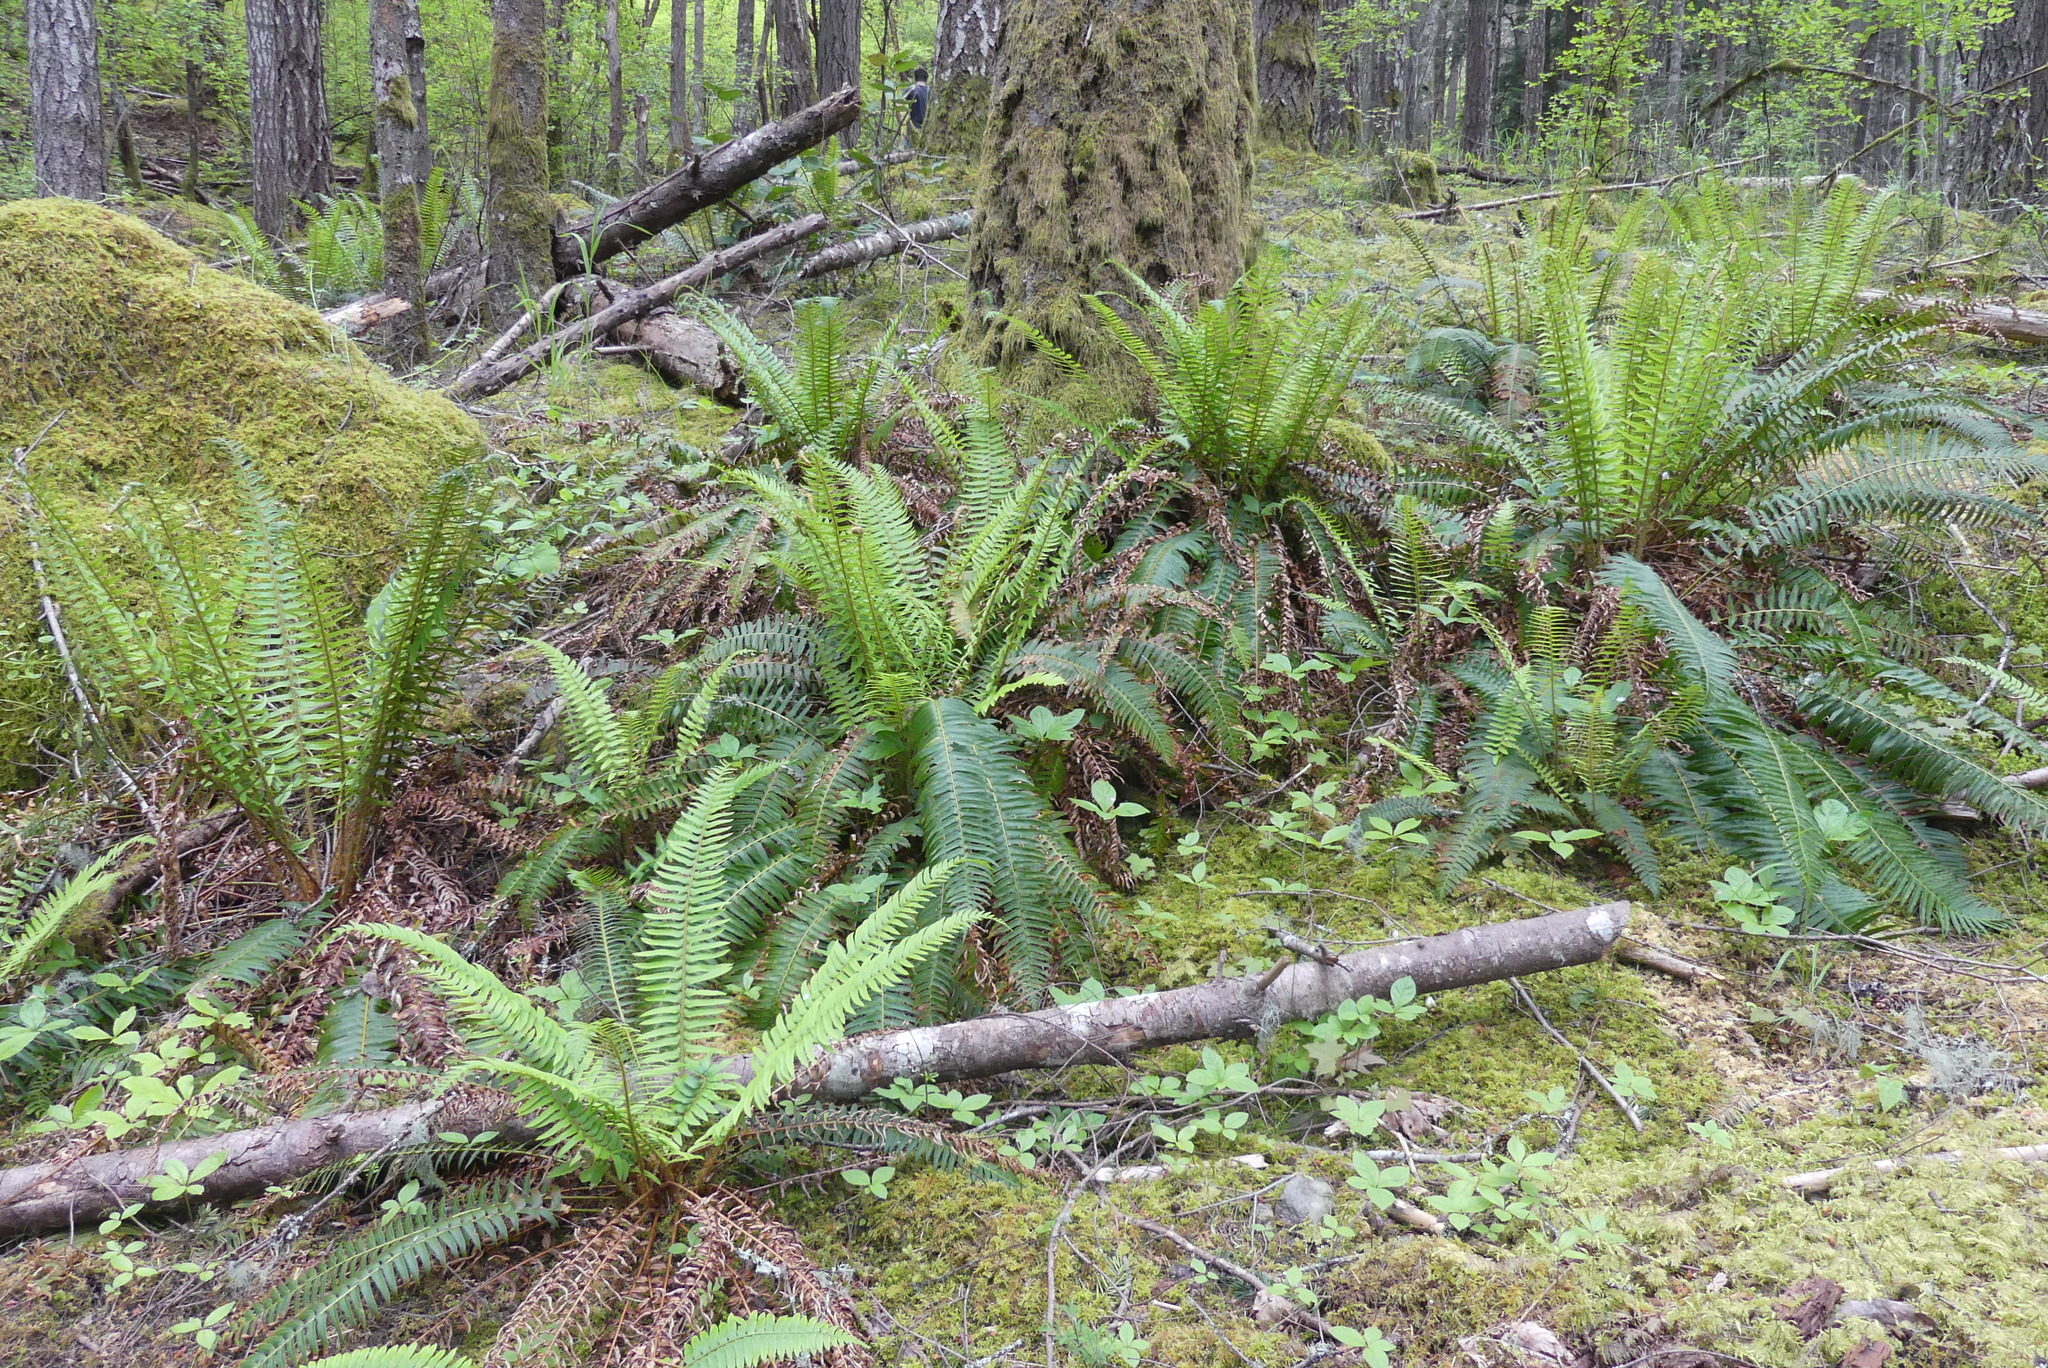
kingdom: Plantae
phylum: Tracheophyta
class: Polypodiopsida
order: Polypodiales
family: Dryopteridaceae
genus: Polystichum
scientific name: Polystichum munitum
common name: Western sword-fern
